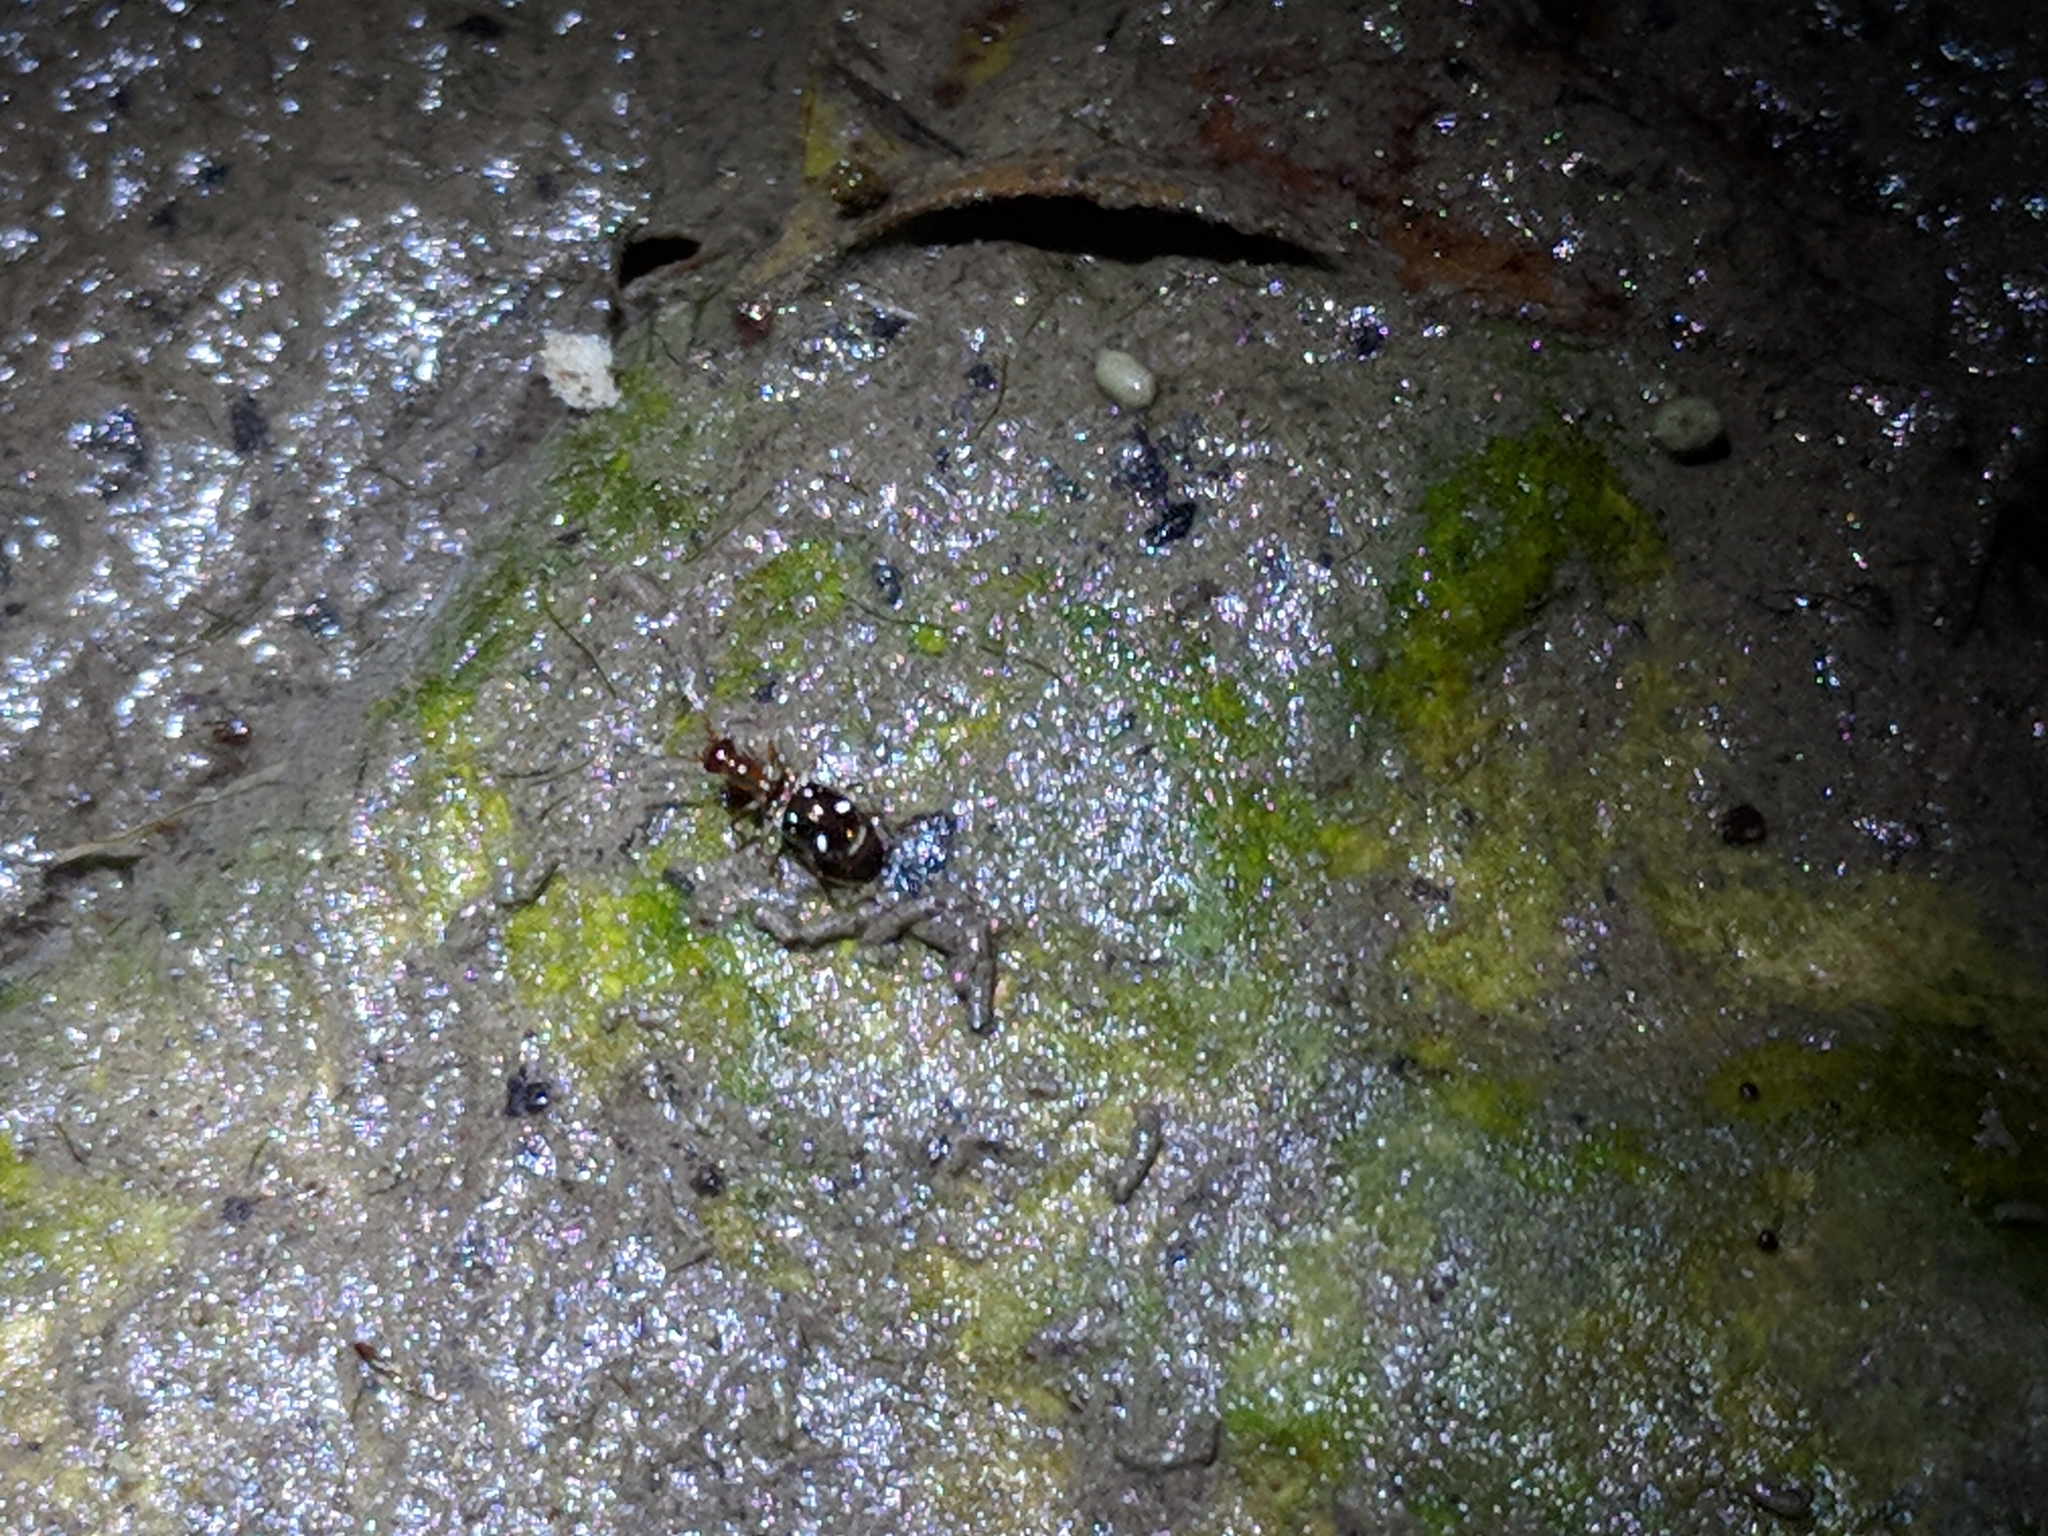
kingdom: Animalia
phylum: Arthropoda
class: Insecta
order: Coleoptera
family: Carabidae
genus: Ega
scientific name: Ega sallei
